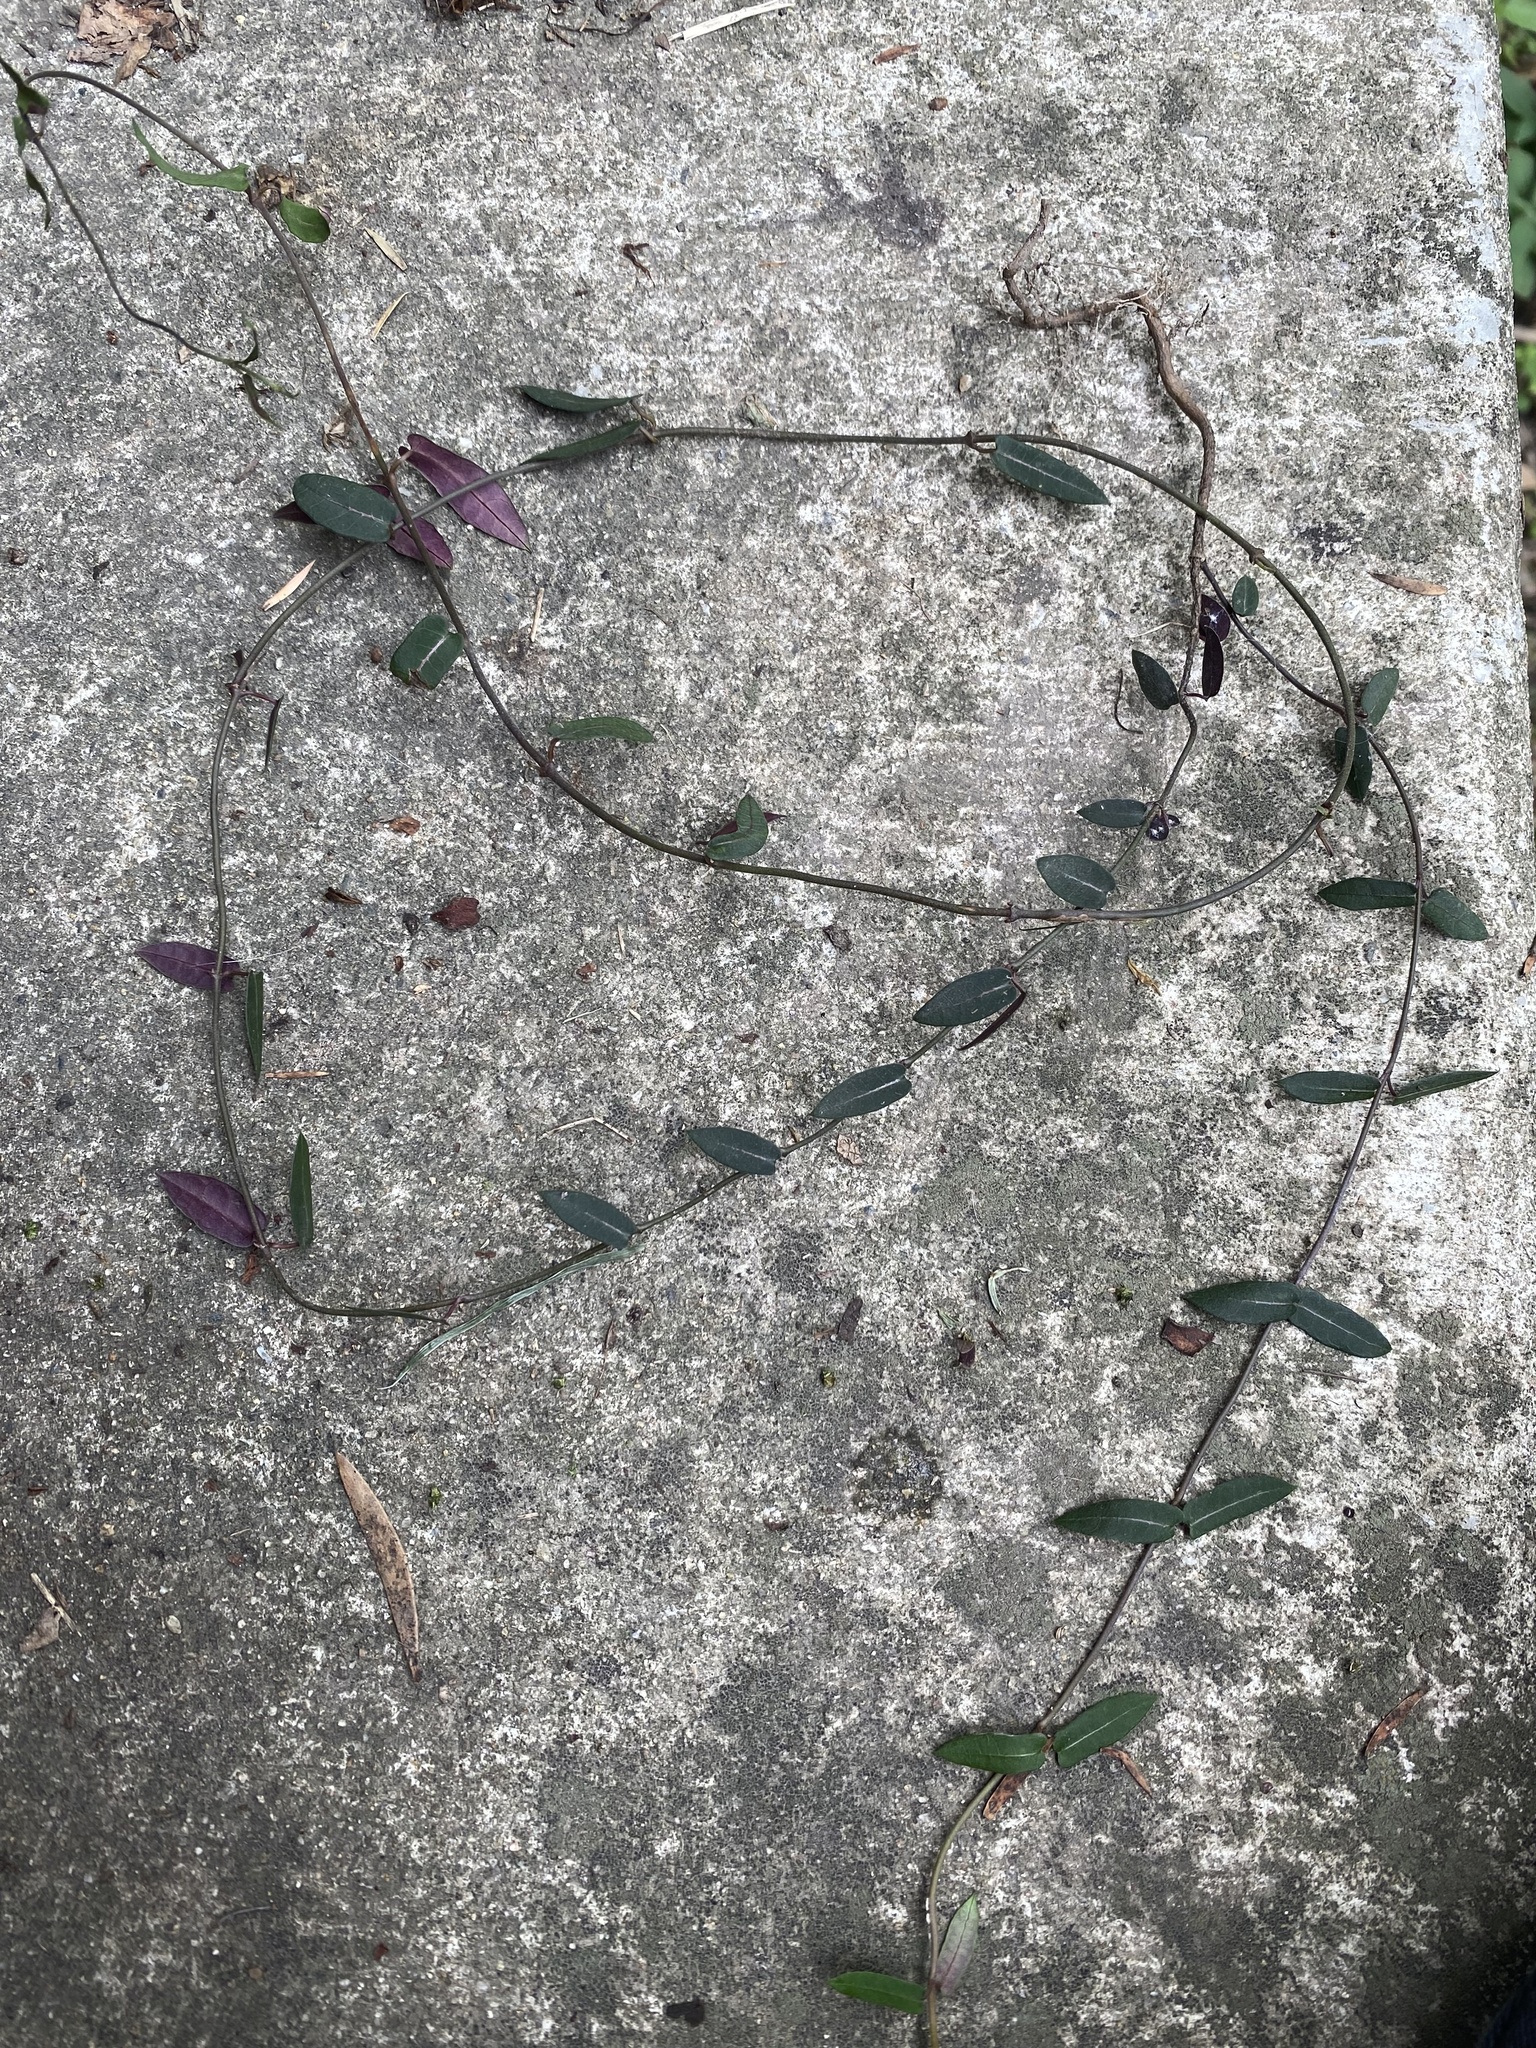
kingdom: Plantae
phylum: Tracheophyta
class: Magnoliopsida
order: Gentianales
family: Apocynaceae
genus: Parsonsia
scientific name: Parsonsia straminea
